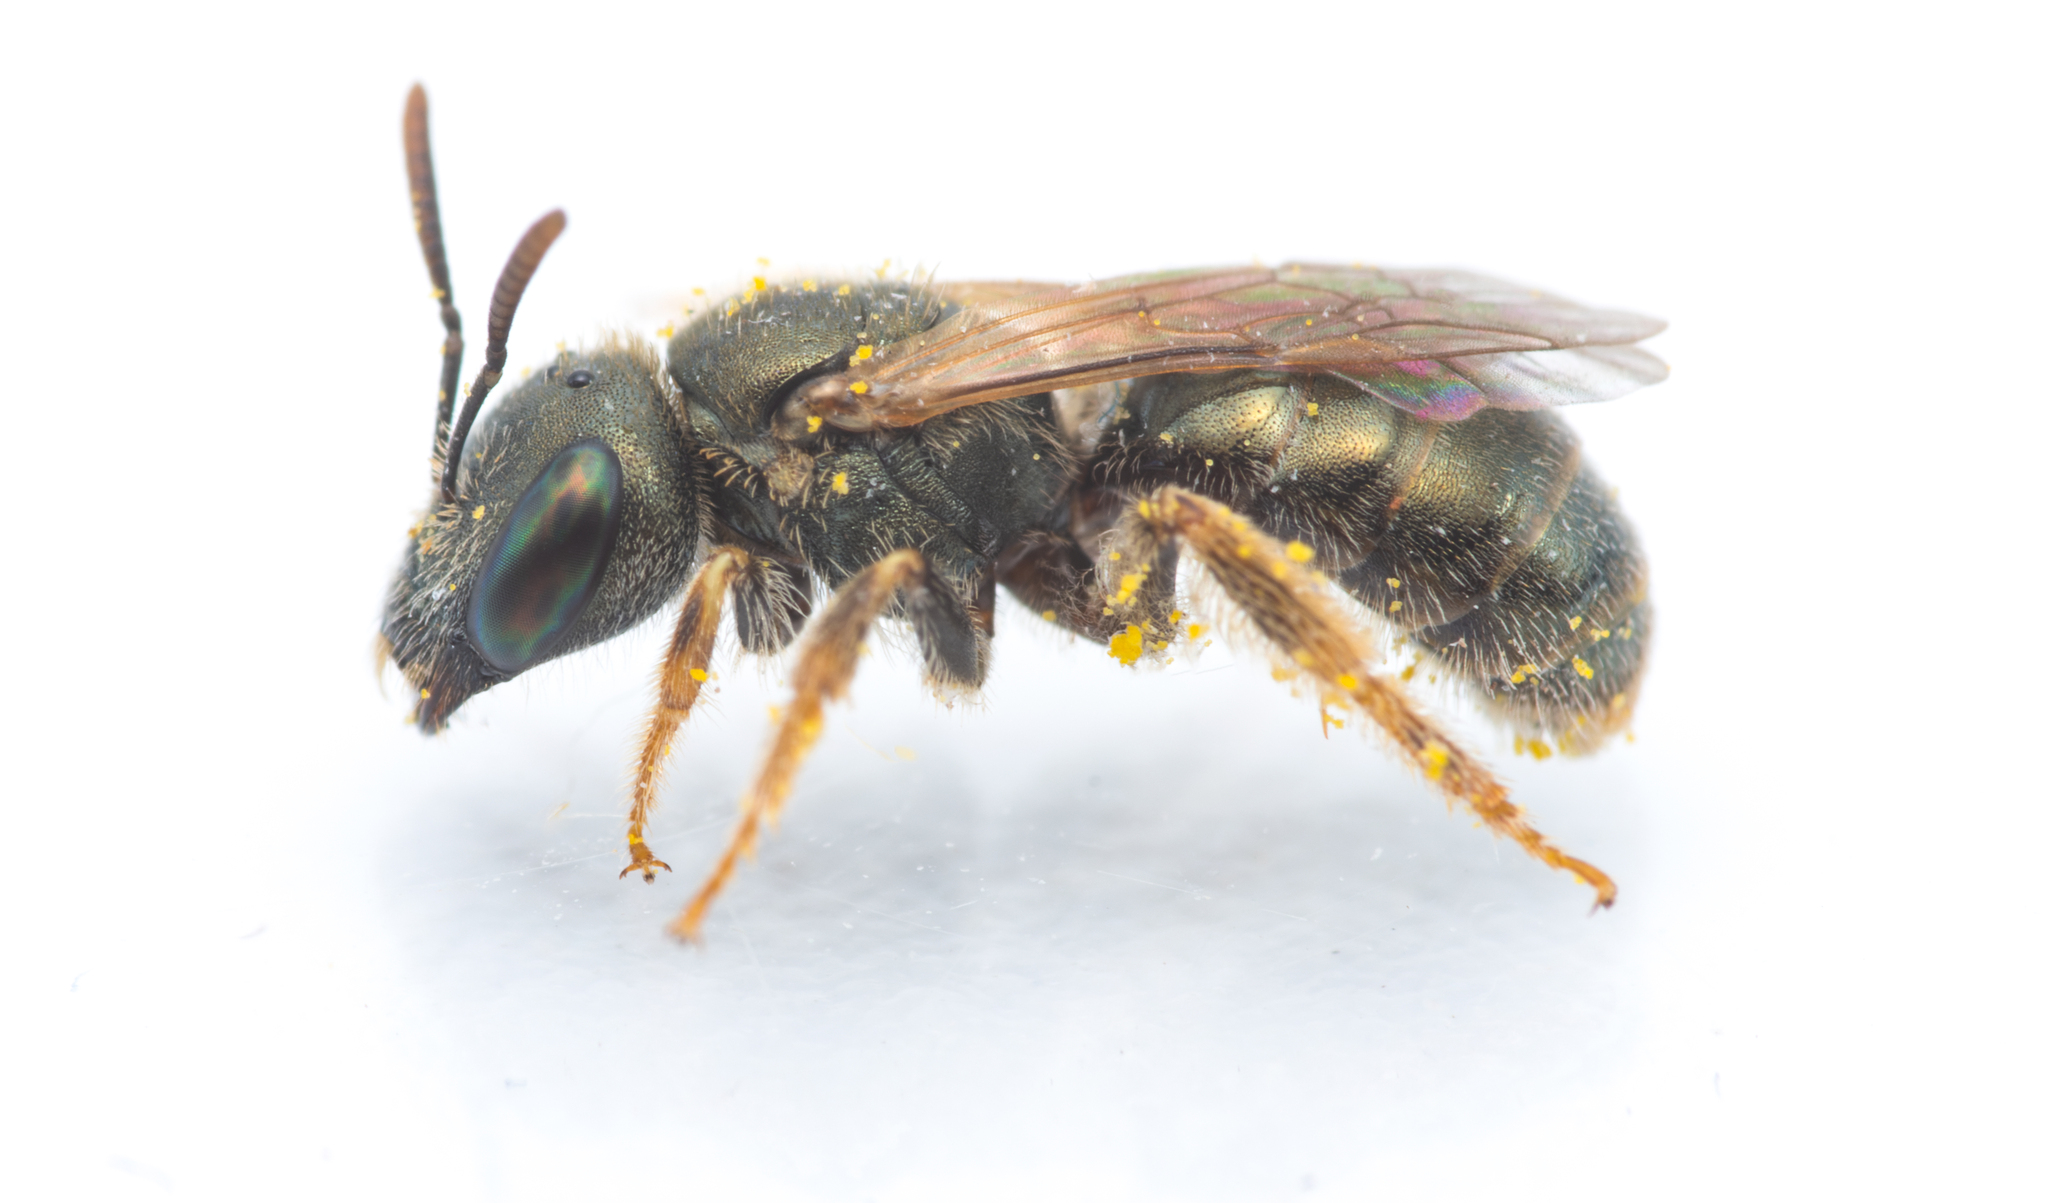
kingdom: Animalia
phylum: Arthropoda
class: Insecta
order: Hymenoptera
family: Halictidae
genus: Halictus
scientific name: Halictus gemmeus
